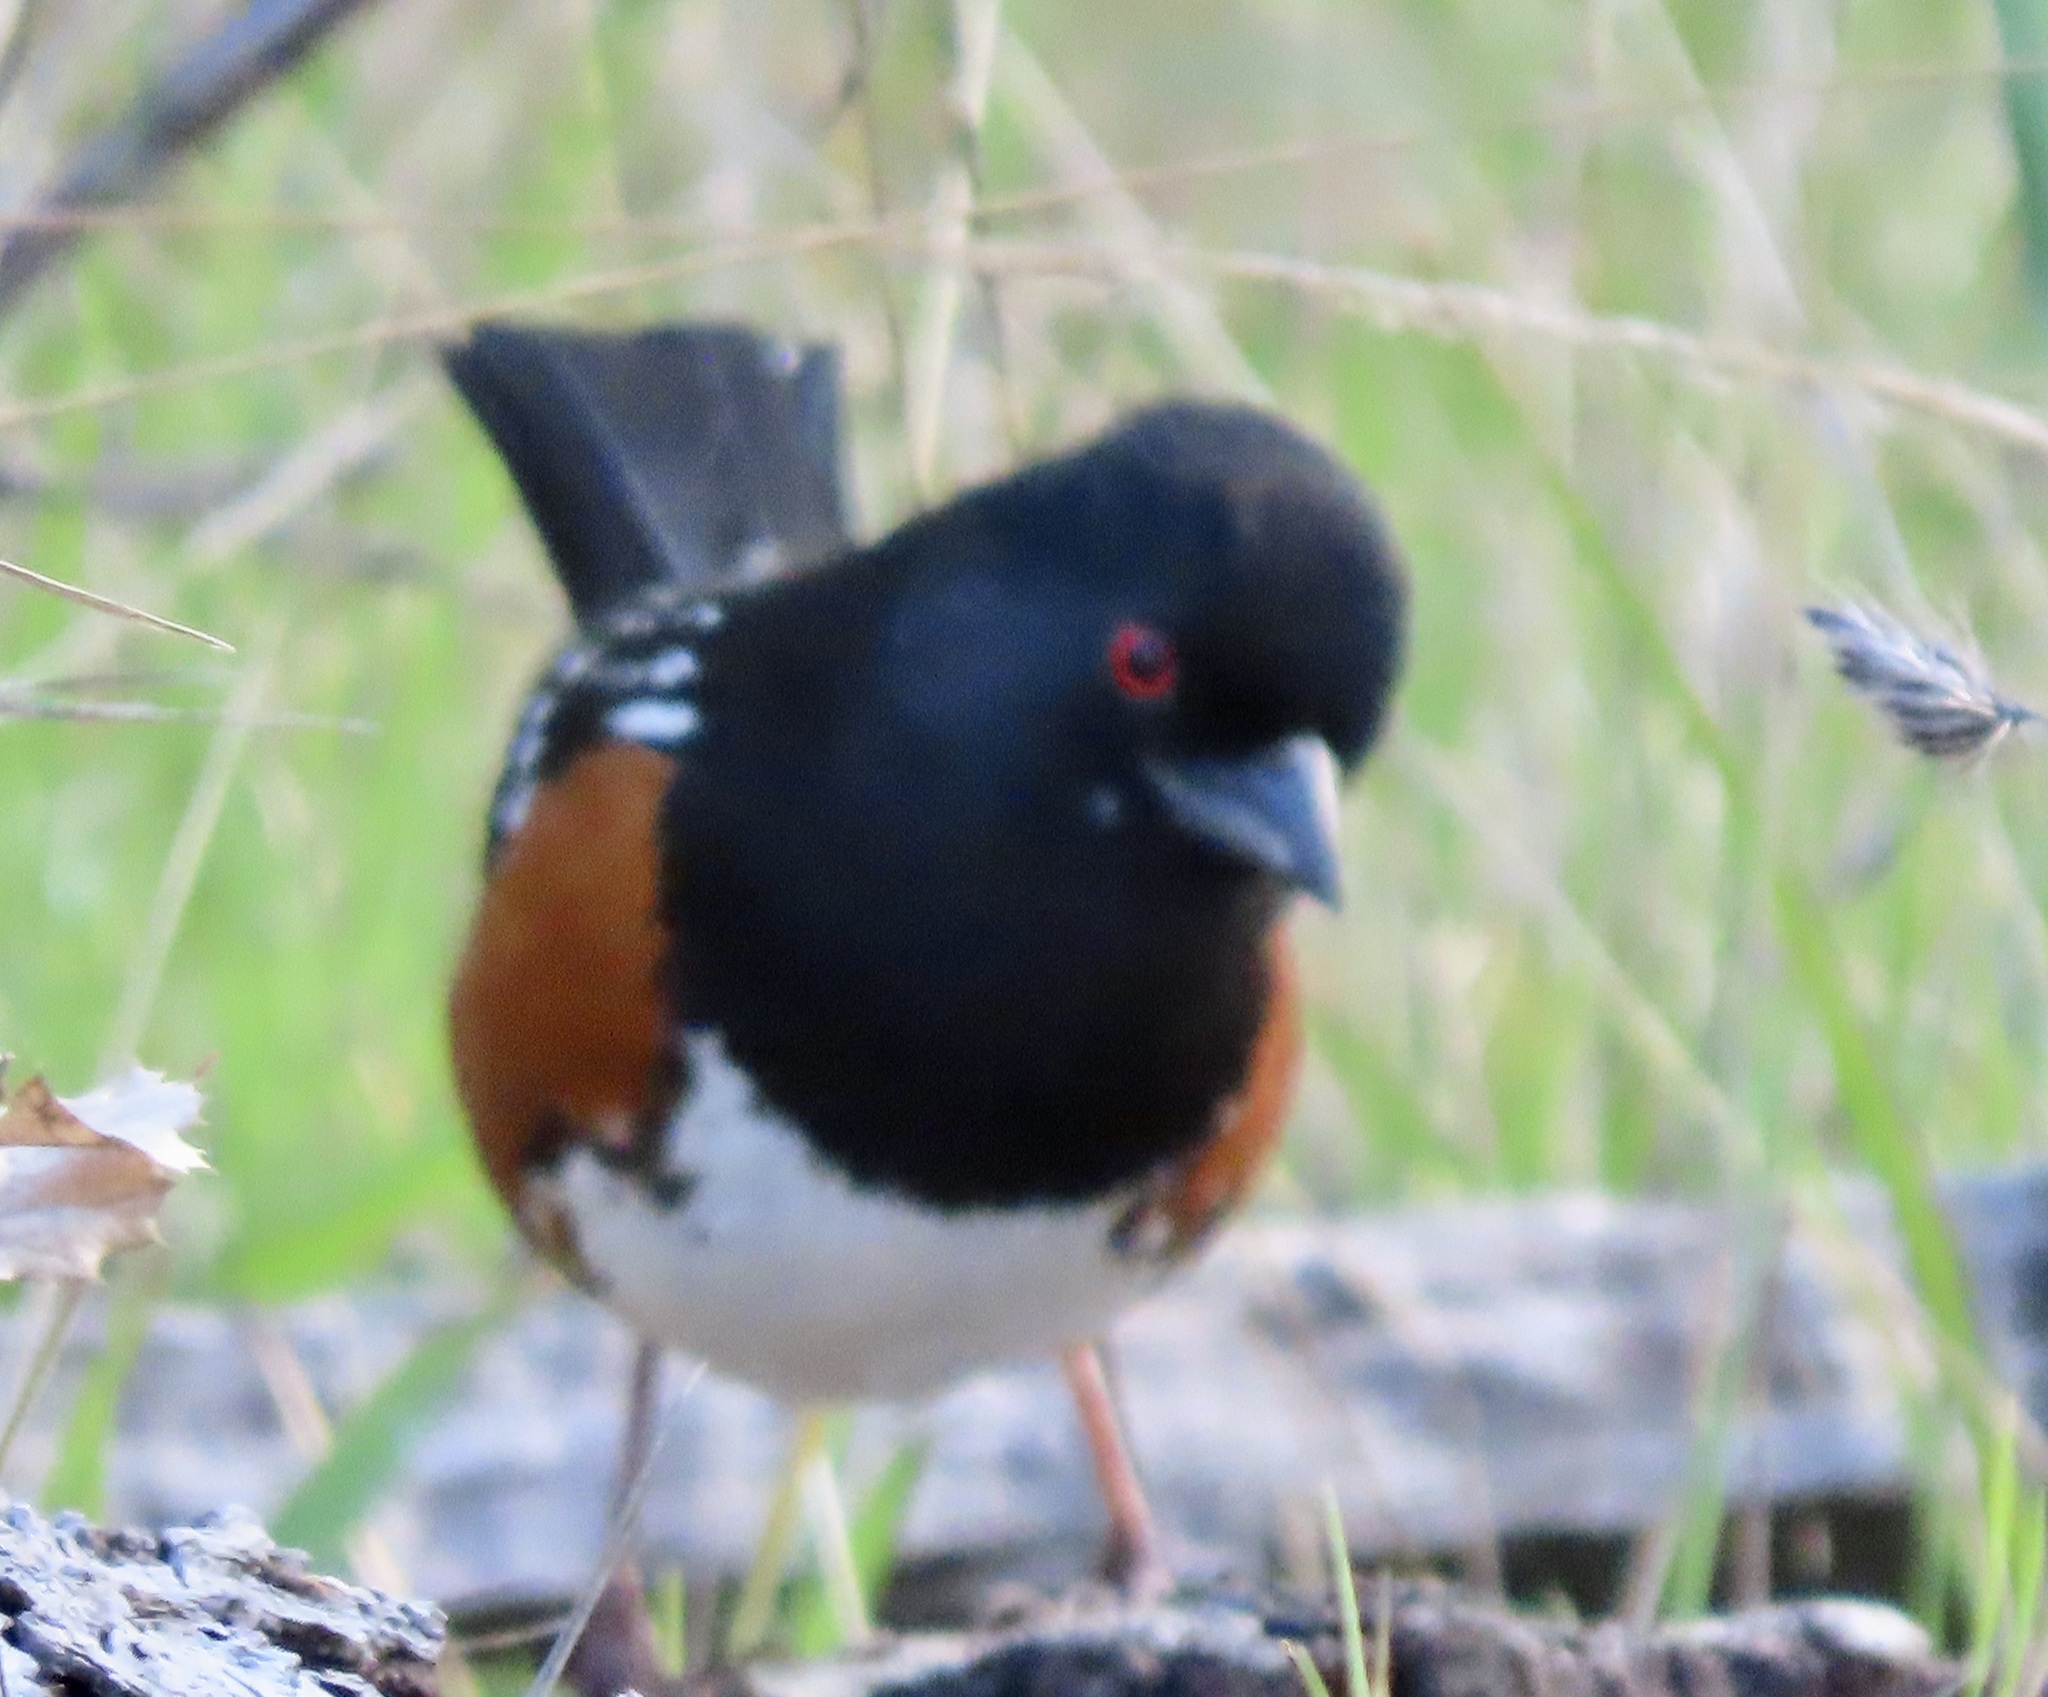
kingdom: Animalia
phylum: Chordata
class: Aves
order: Passeriformes
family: Passerellidae
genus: Pipilo
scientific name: Pipilo maculatus
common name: Spotted towhee
